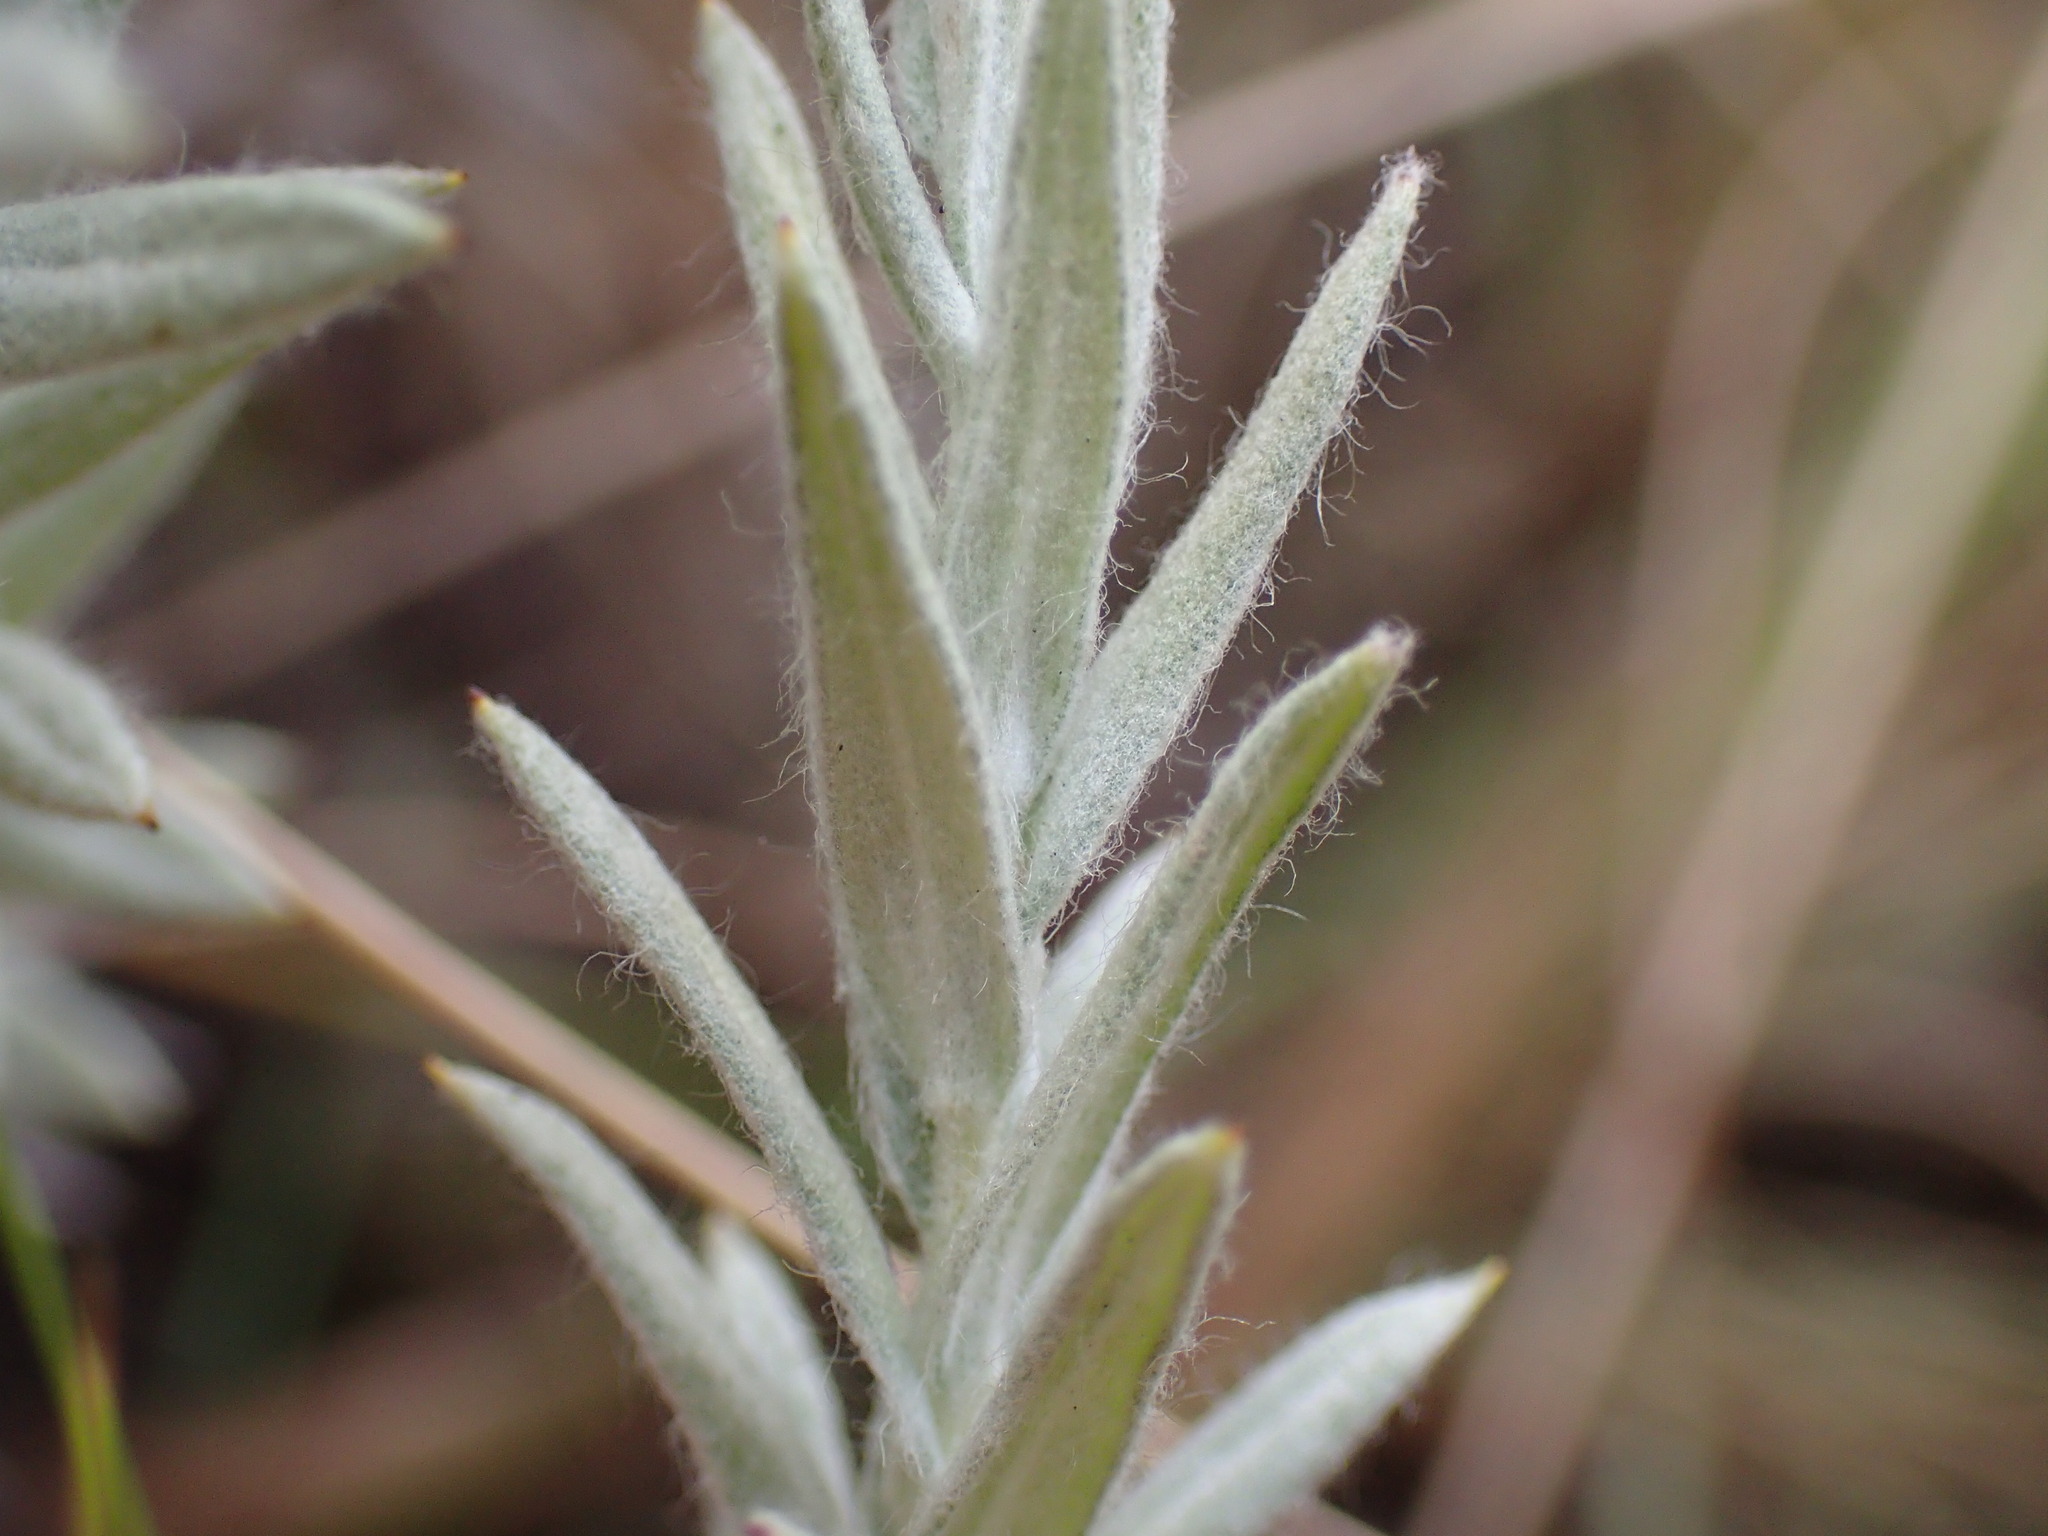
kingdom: Plantae
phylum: Tracheophyta
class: Magnoliopsida
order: Asterales
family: Asteraceae
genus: Helichrysum
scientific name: Helichrysum herbaceum
